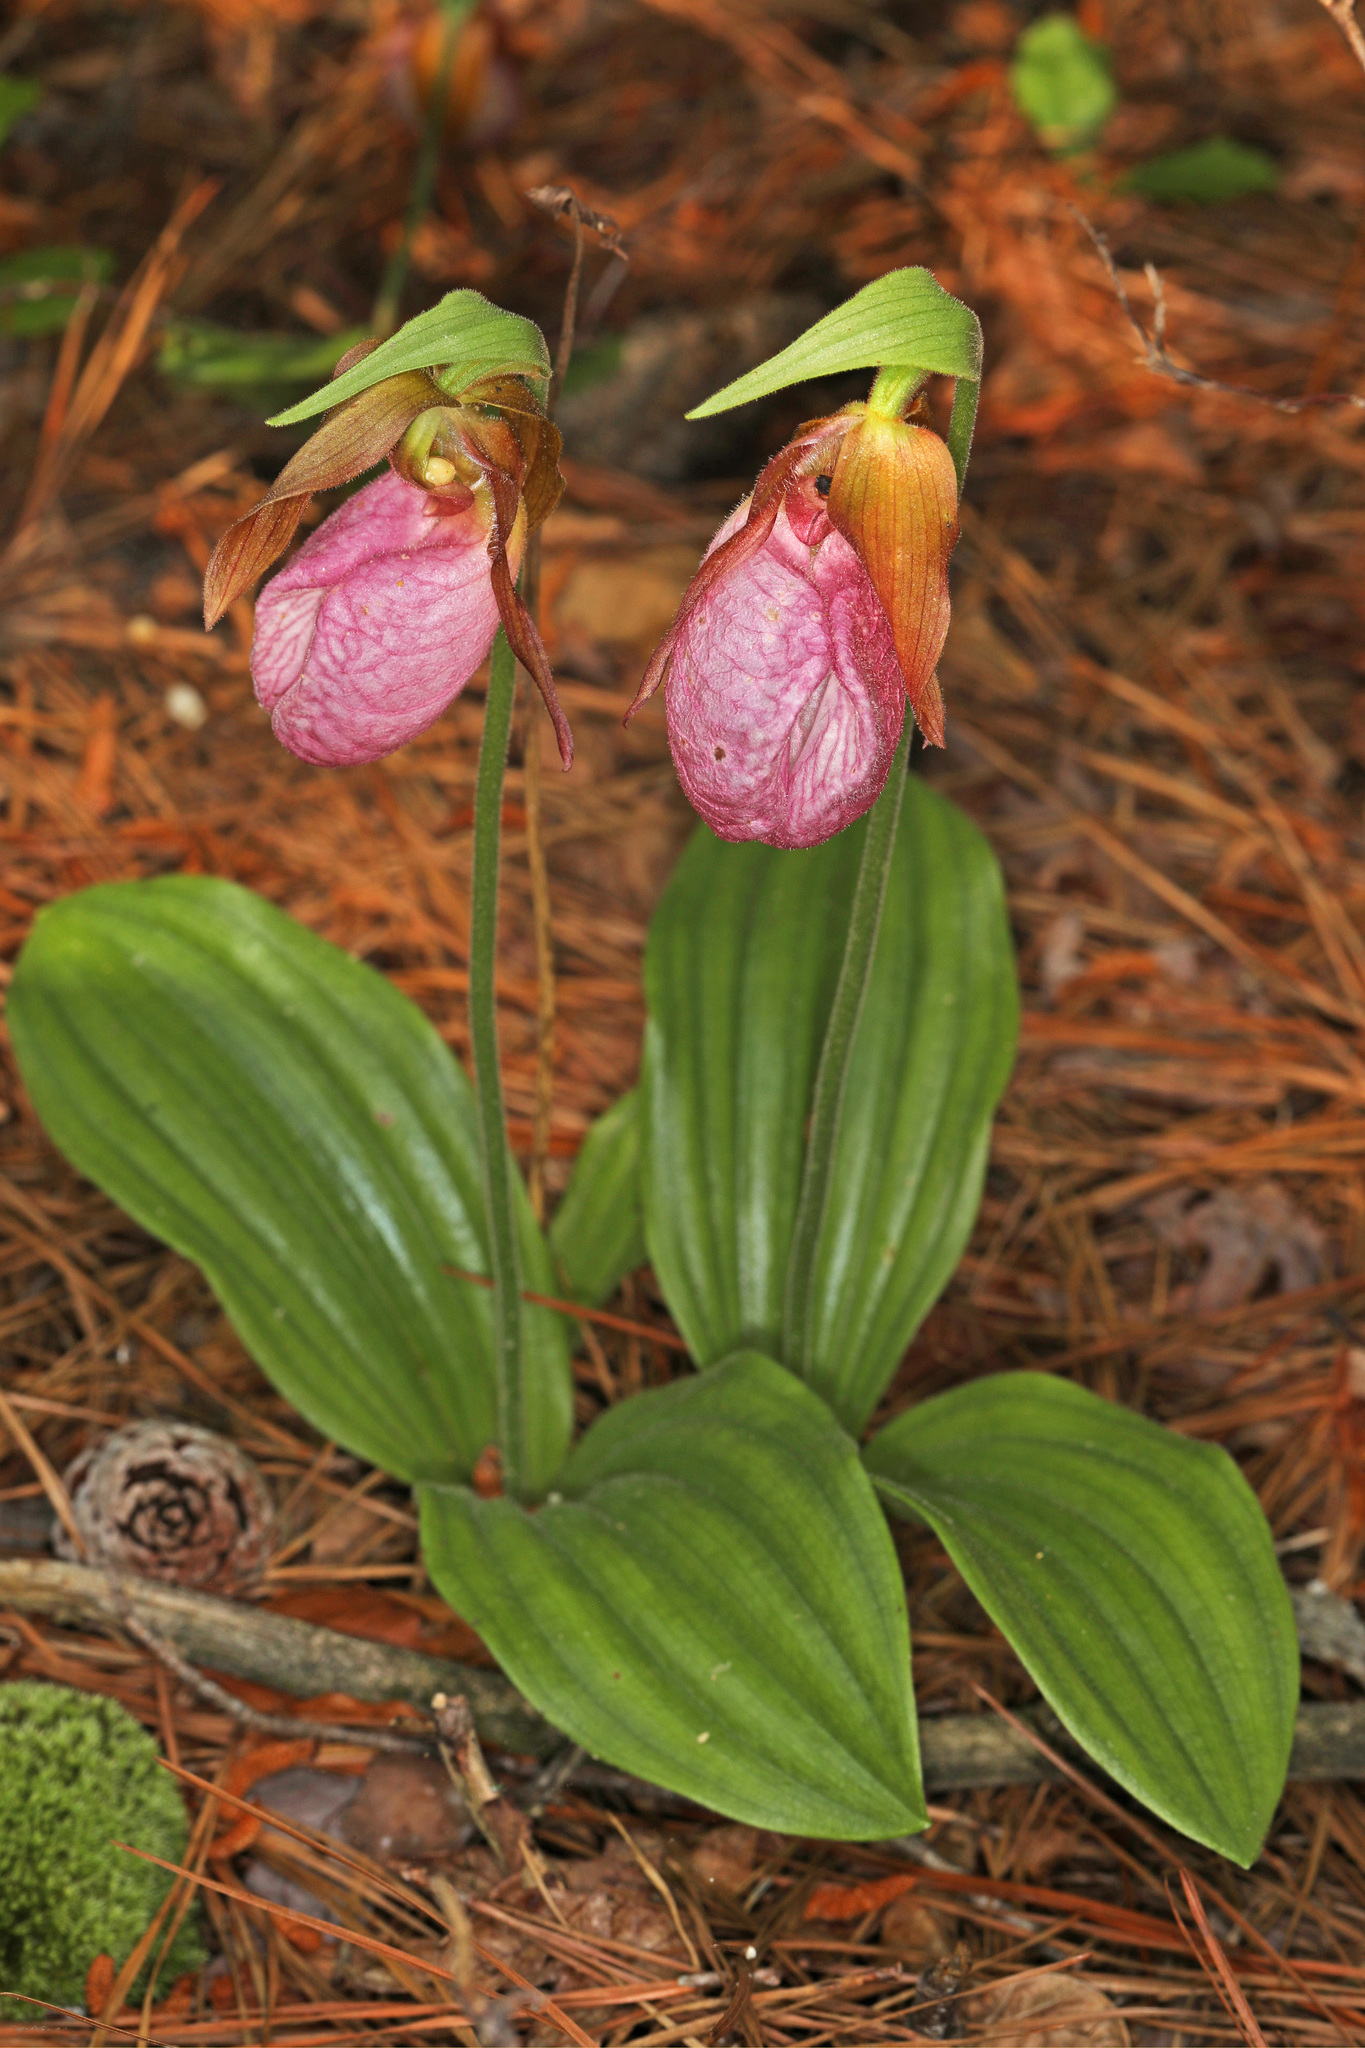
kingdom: Plantae
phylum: Tracheophyta
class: Liliopsida
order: Asparagales
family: Orchidaceae
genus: Cypripedium
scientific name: Cypripedium acaule
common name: Pink lady's-slipper
